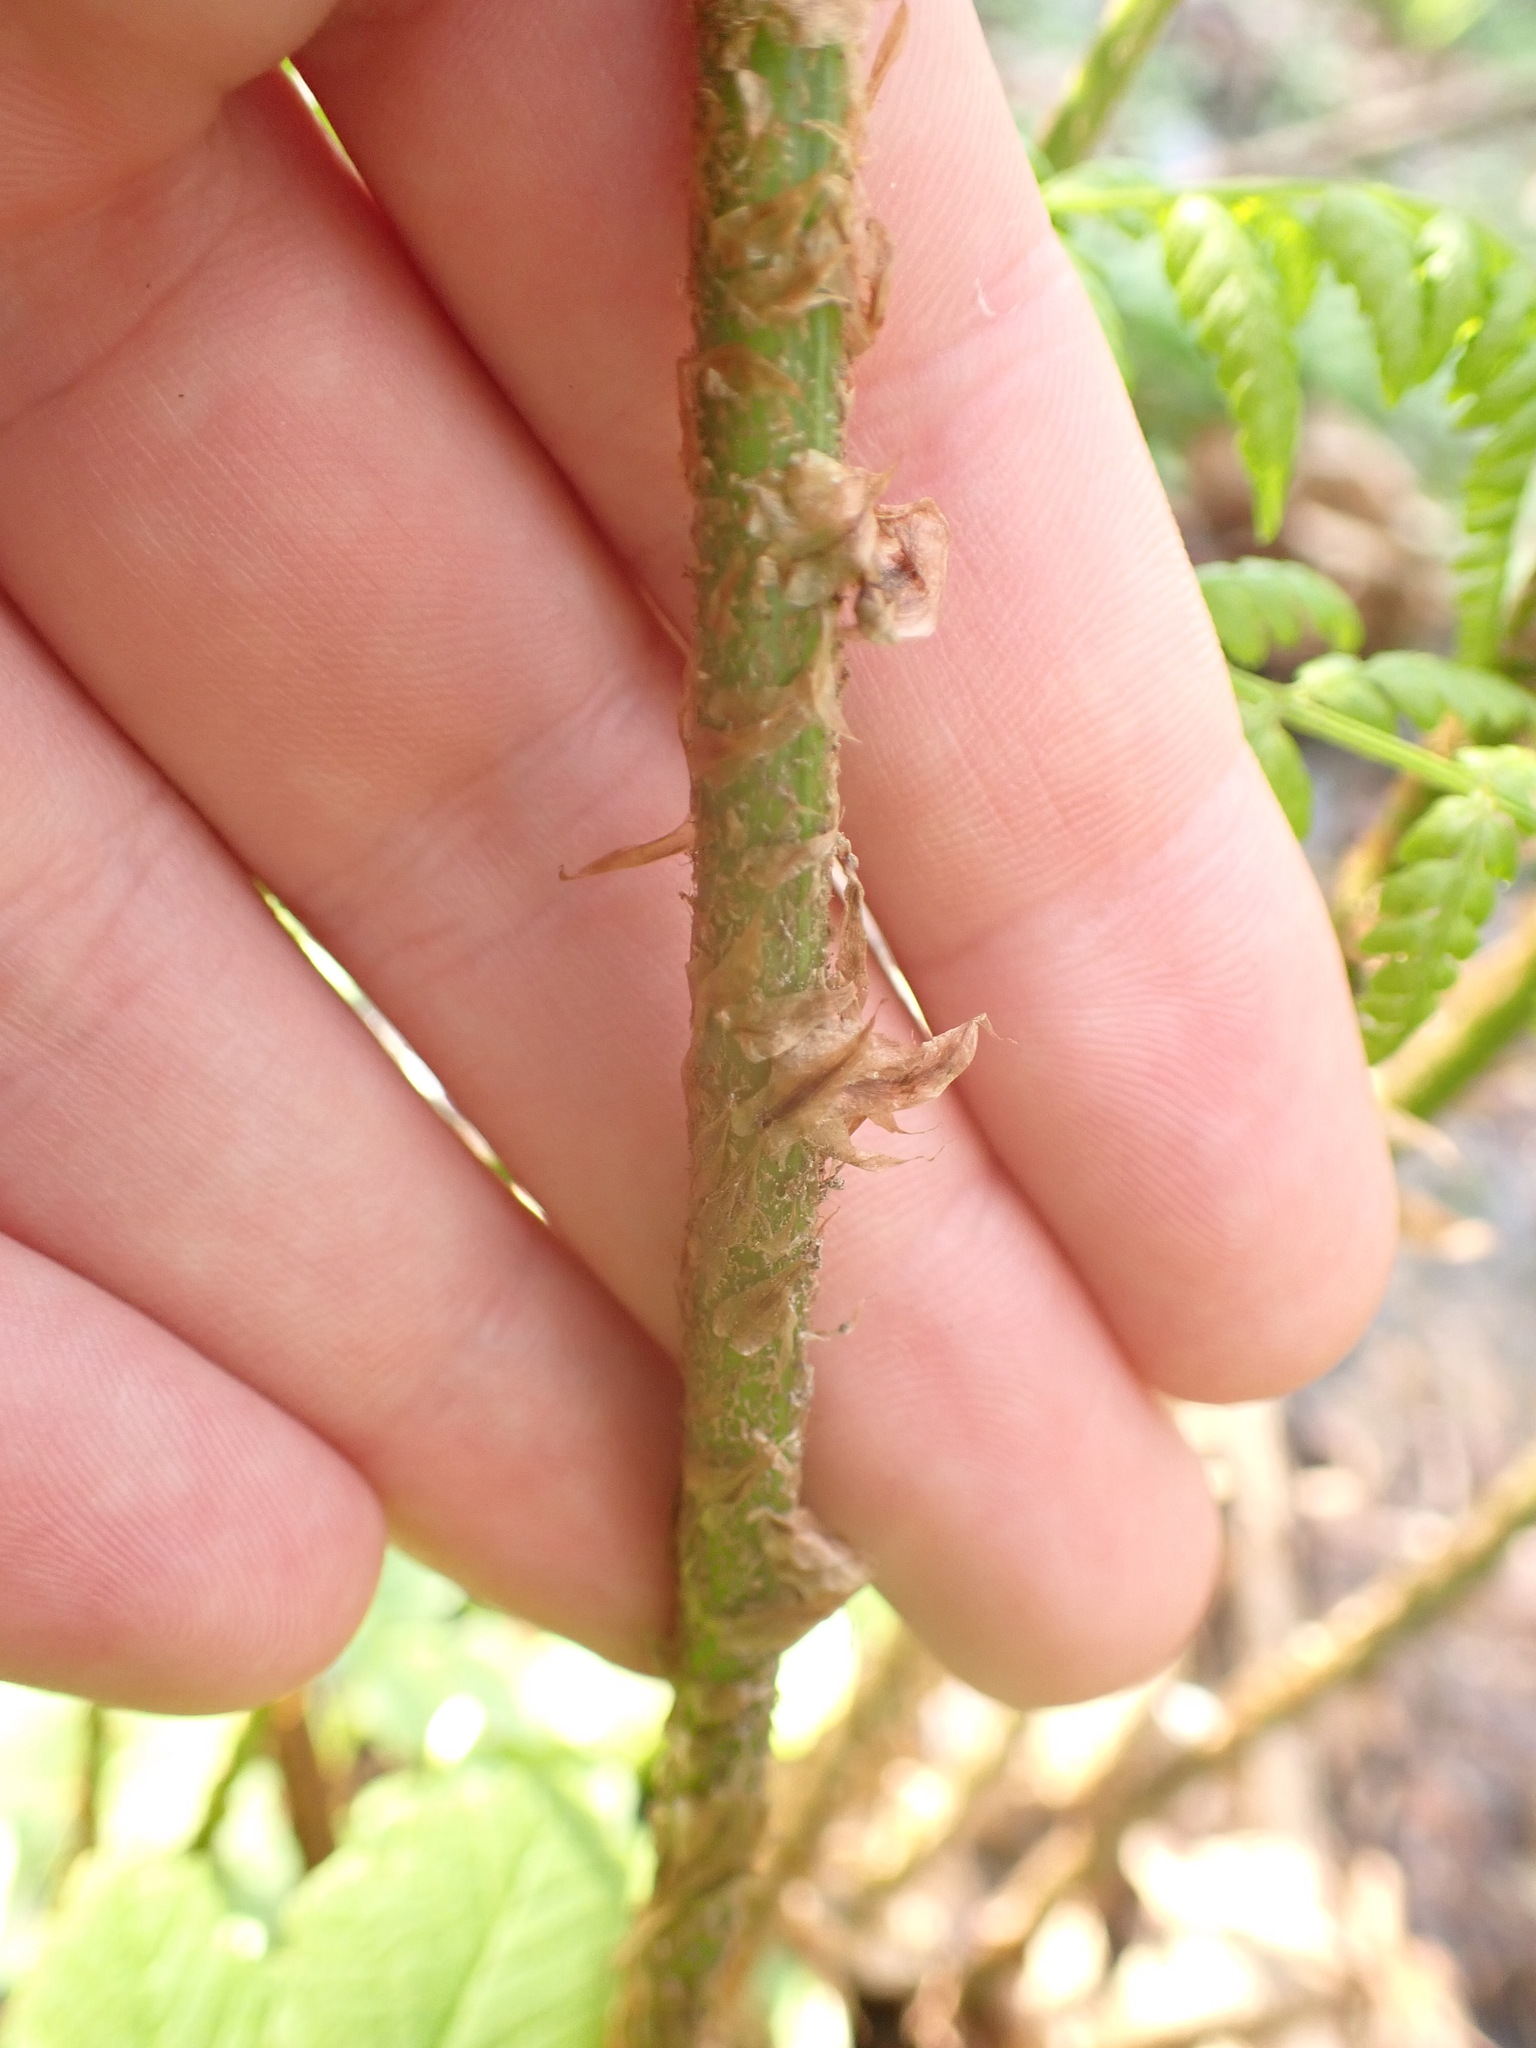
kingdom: Plantae
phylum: Tracheophyta
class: Polypodiopsida
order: Polypodiales
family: Dryopteridaceae
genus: Dryopteris
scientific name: Dryopteris dilatata
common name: Broad buckler-fern
